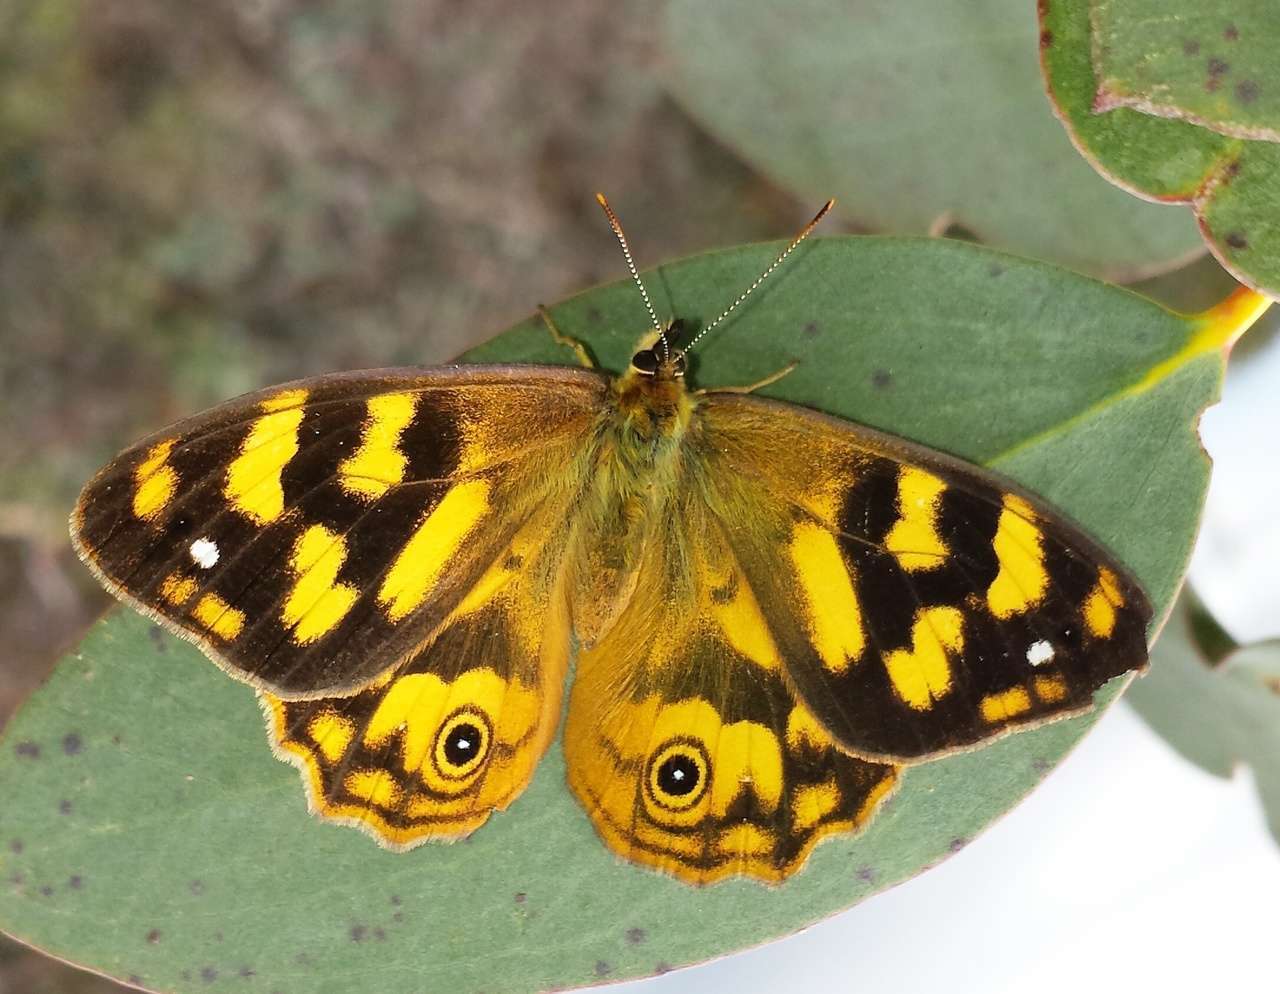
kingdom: Animalia
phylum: Arthropoda
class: Insecta
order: Lepidoptera
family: Nymphalidae
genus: Heteronympha
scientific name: Heteronympha solandri
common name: Solander's brown
